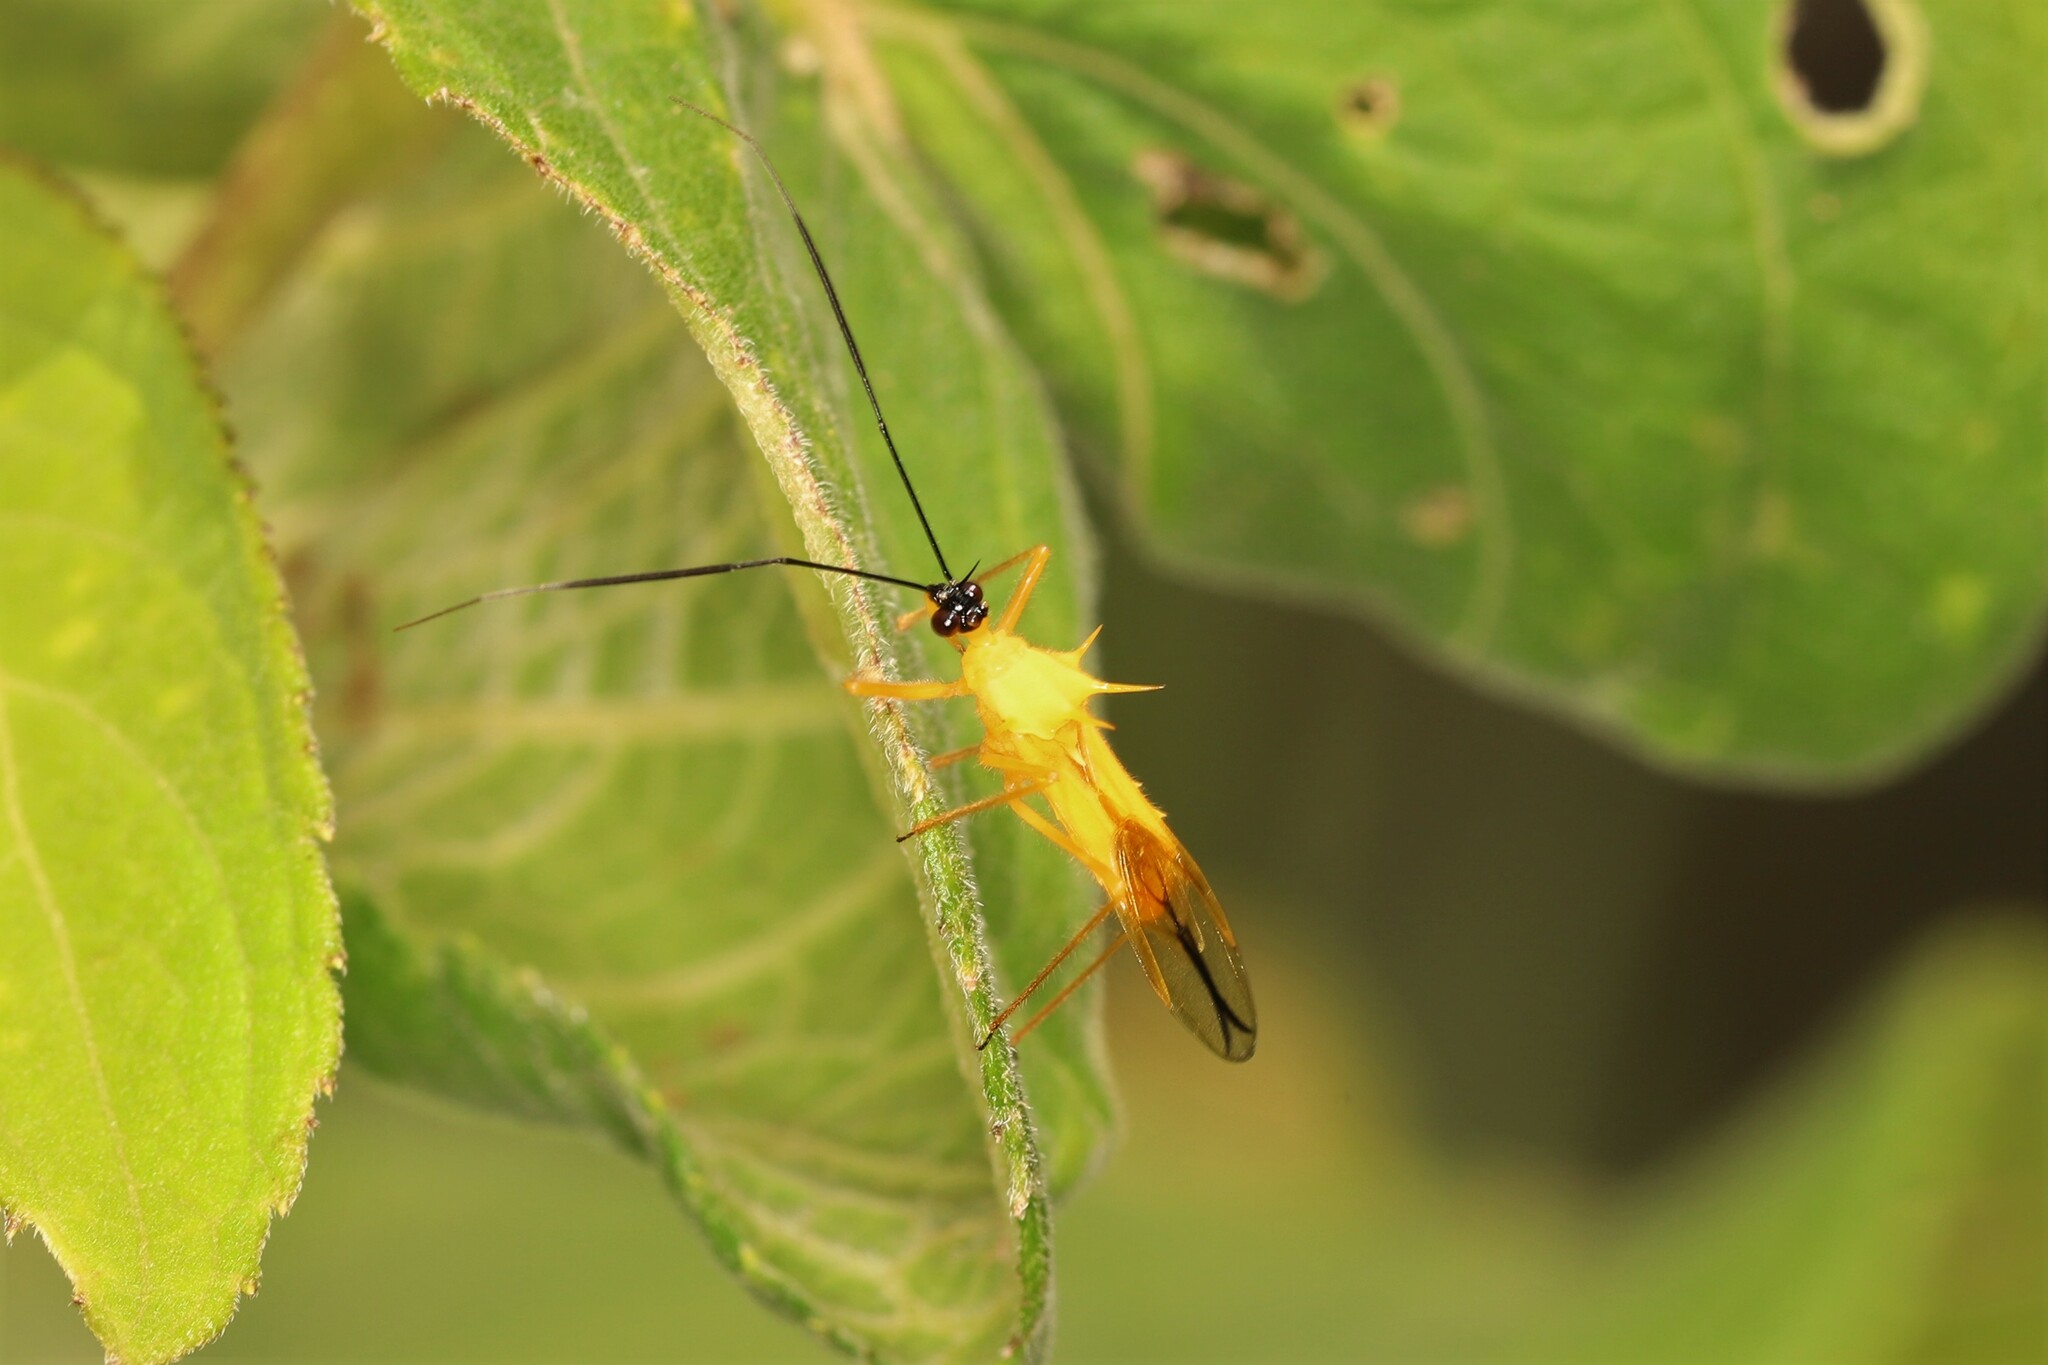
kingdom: Animalia
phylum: Arthropoda
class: Insecta
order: Hemiptera
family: Reduviidae
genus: Corcia
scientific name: Corcia columbica
